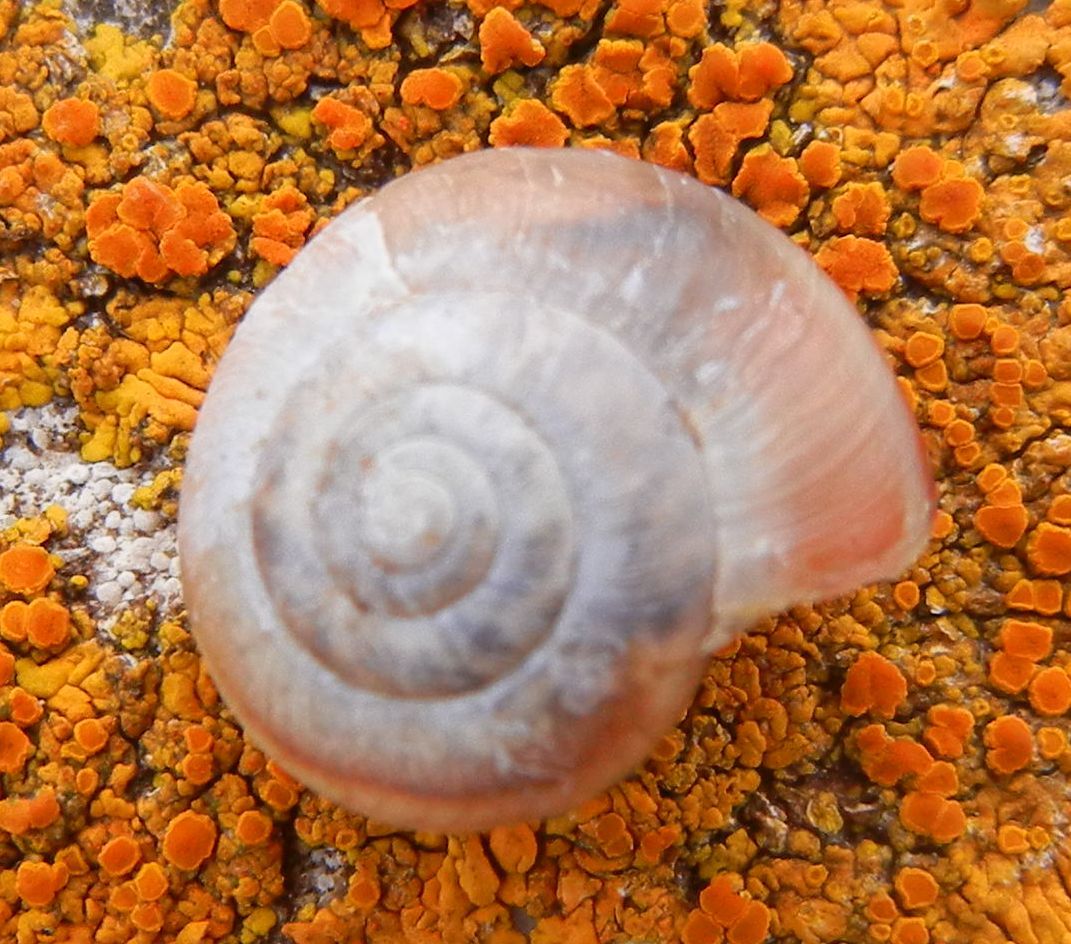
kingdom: Animalia
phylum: Mollusca
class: Gastropoda
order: Stylommatophora
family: Hygromiidae
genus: Monacha
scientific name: Monacha cantiana
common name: Kentish snail
